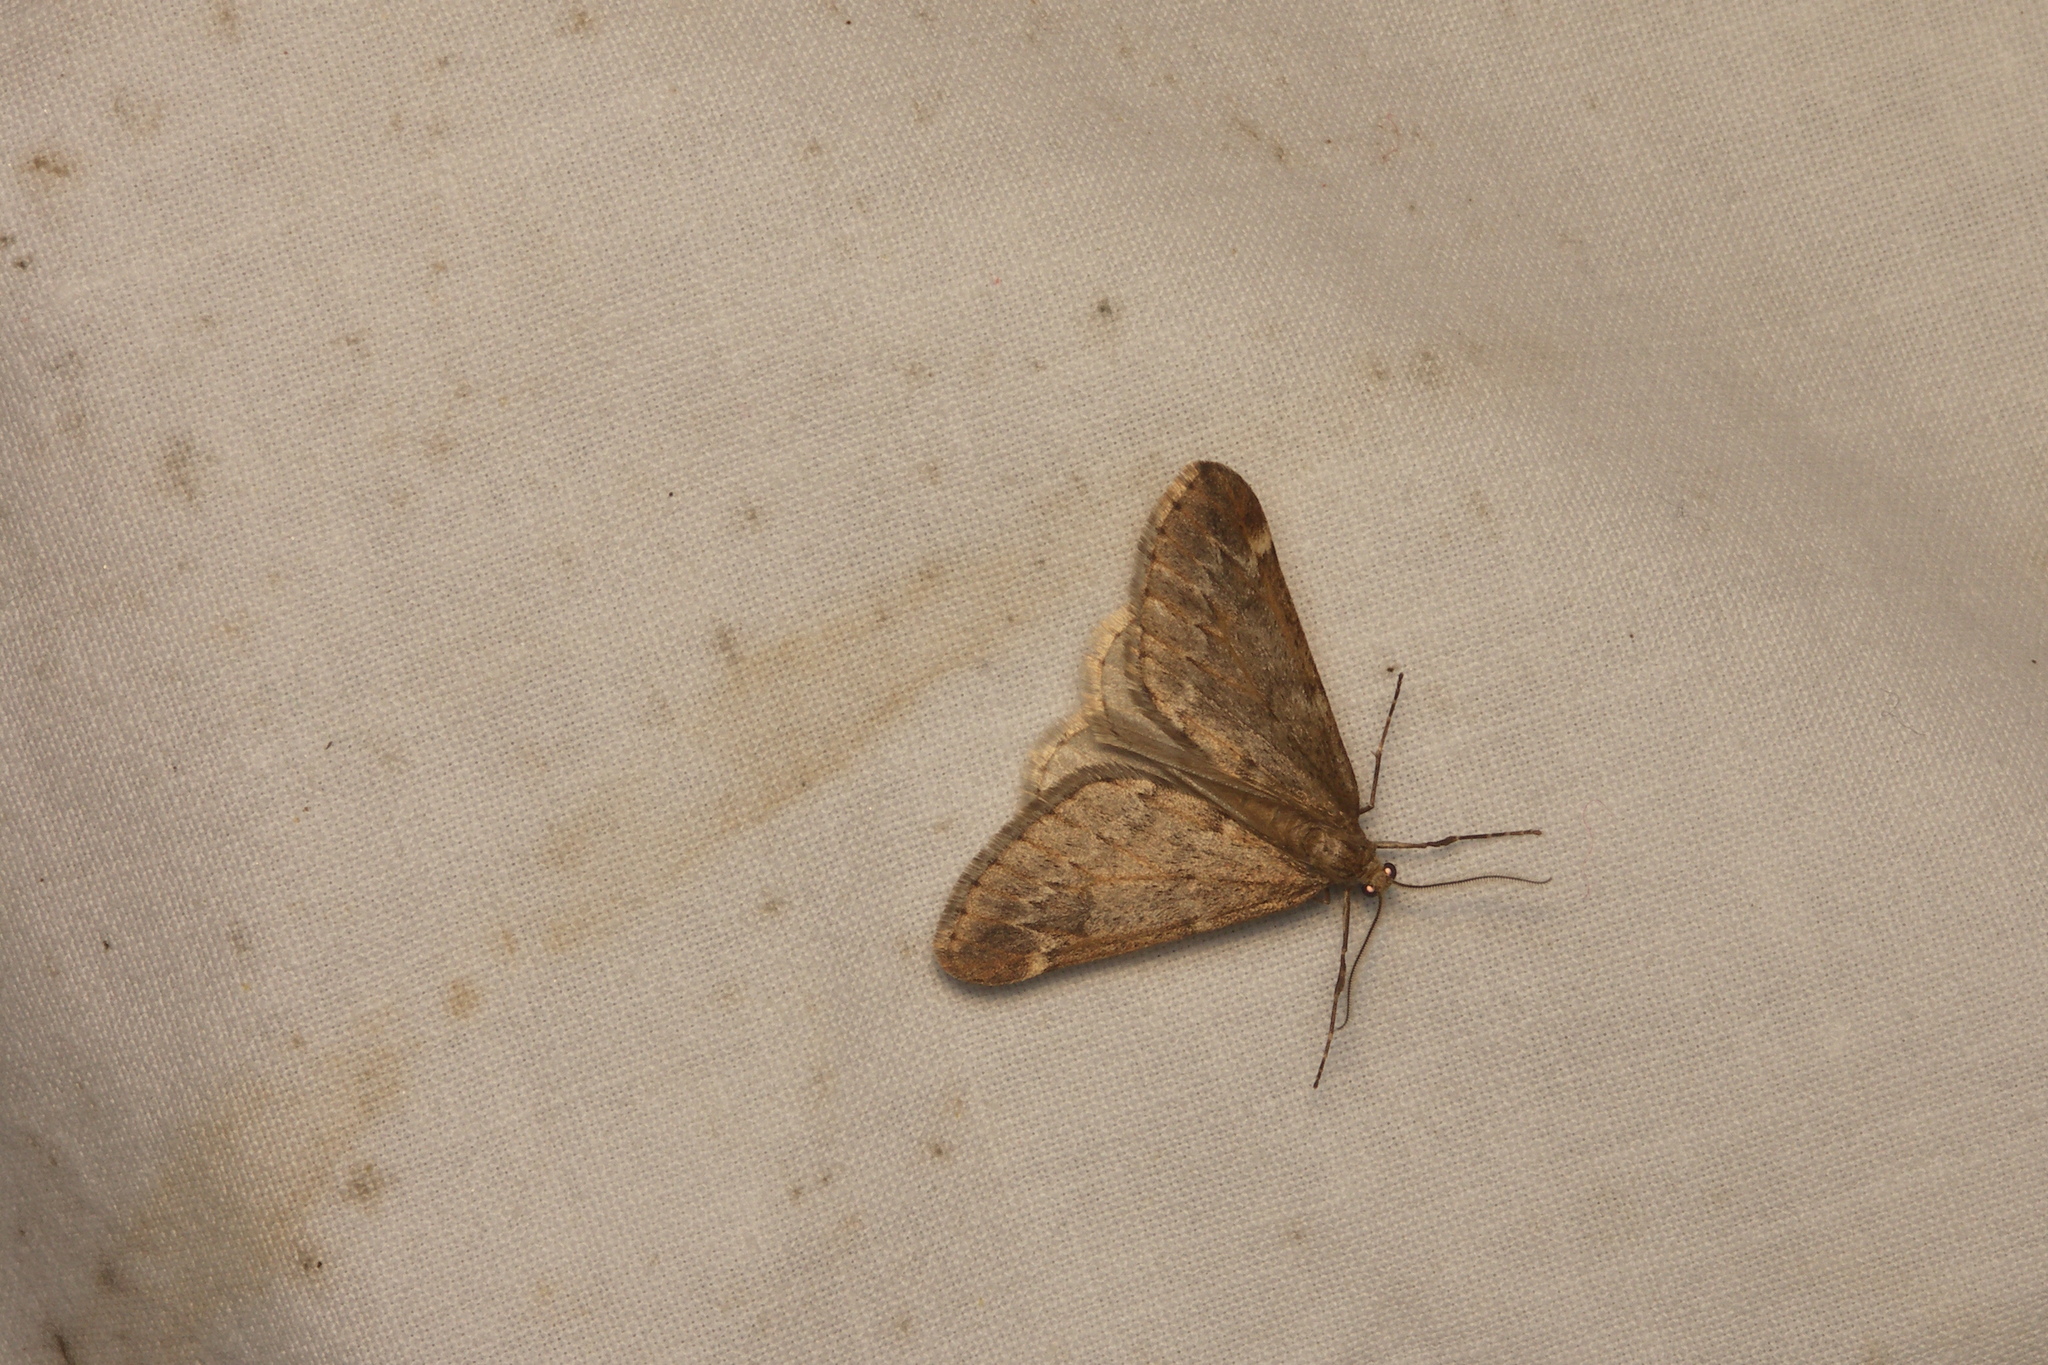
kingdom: Animalia
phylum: Arthropoda
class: Insecta
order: Lepidoptera
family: Geometridae
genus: Alsophila
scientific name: Alsophila aescularia
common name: March moth
